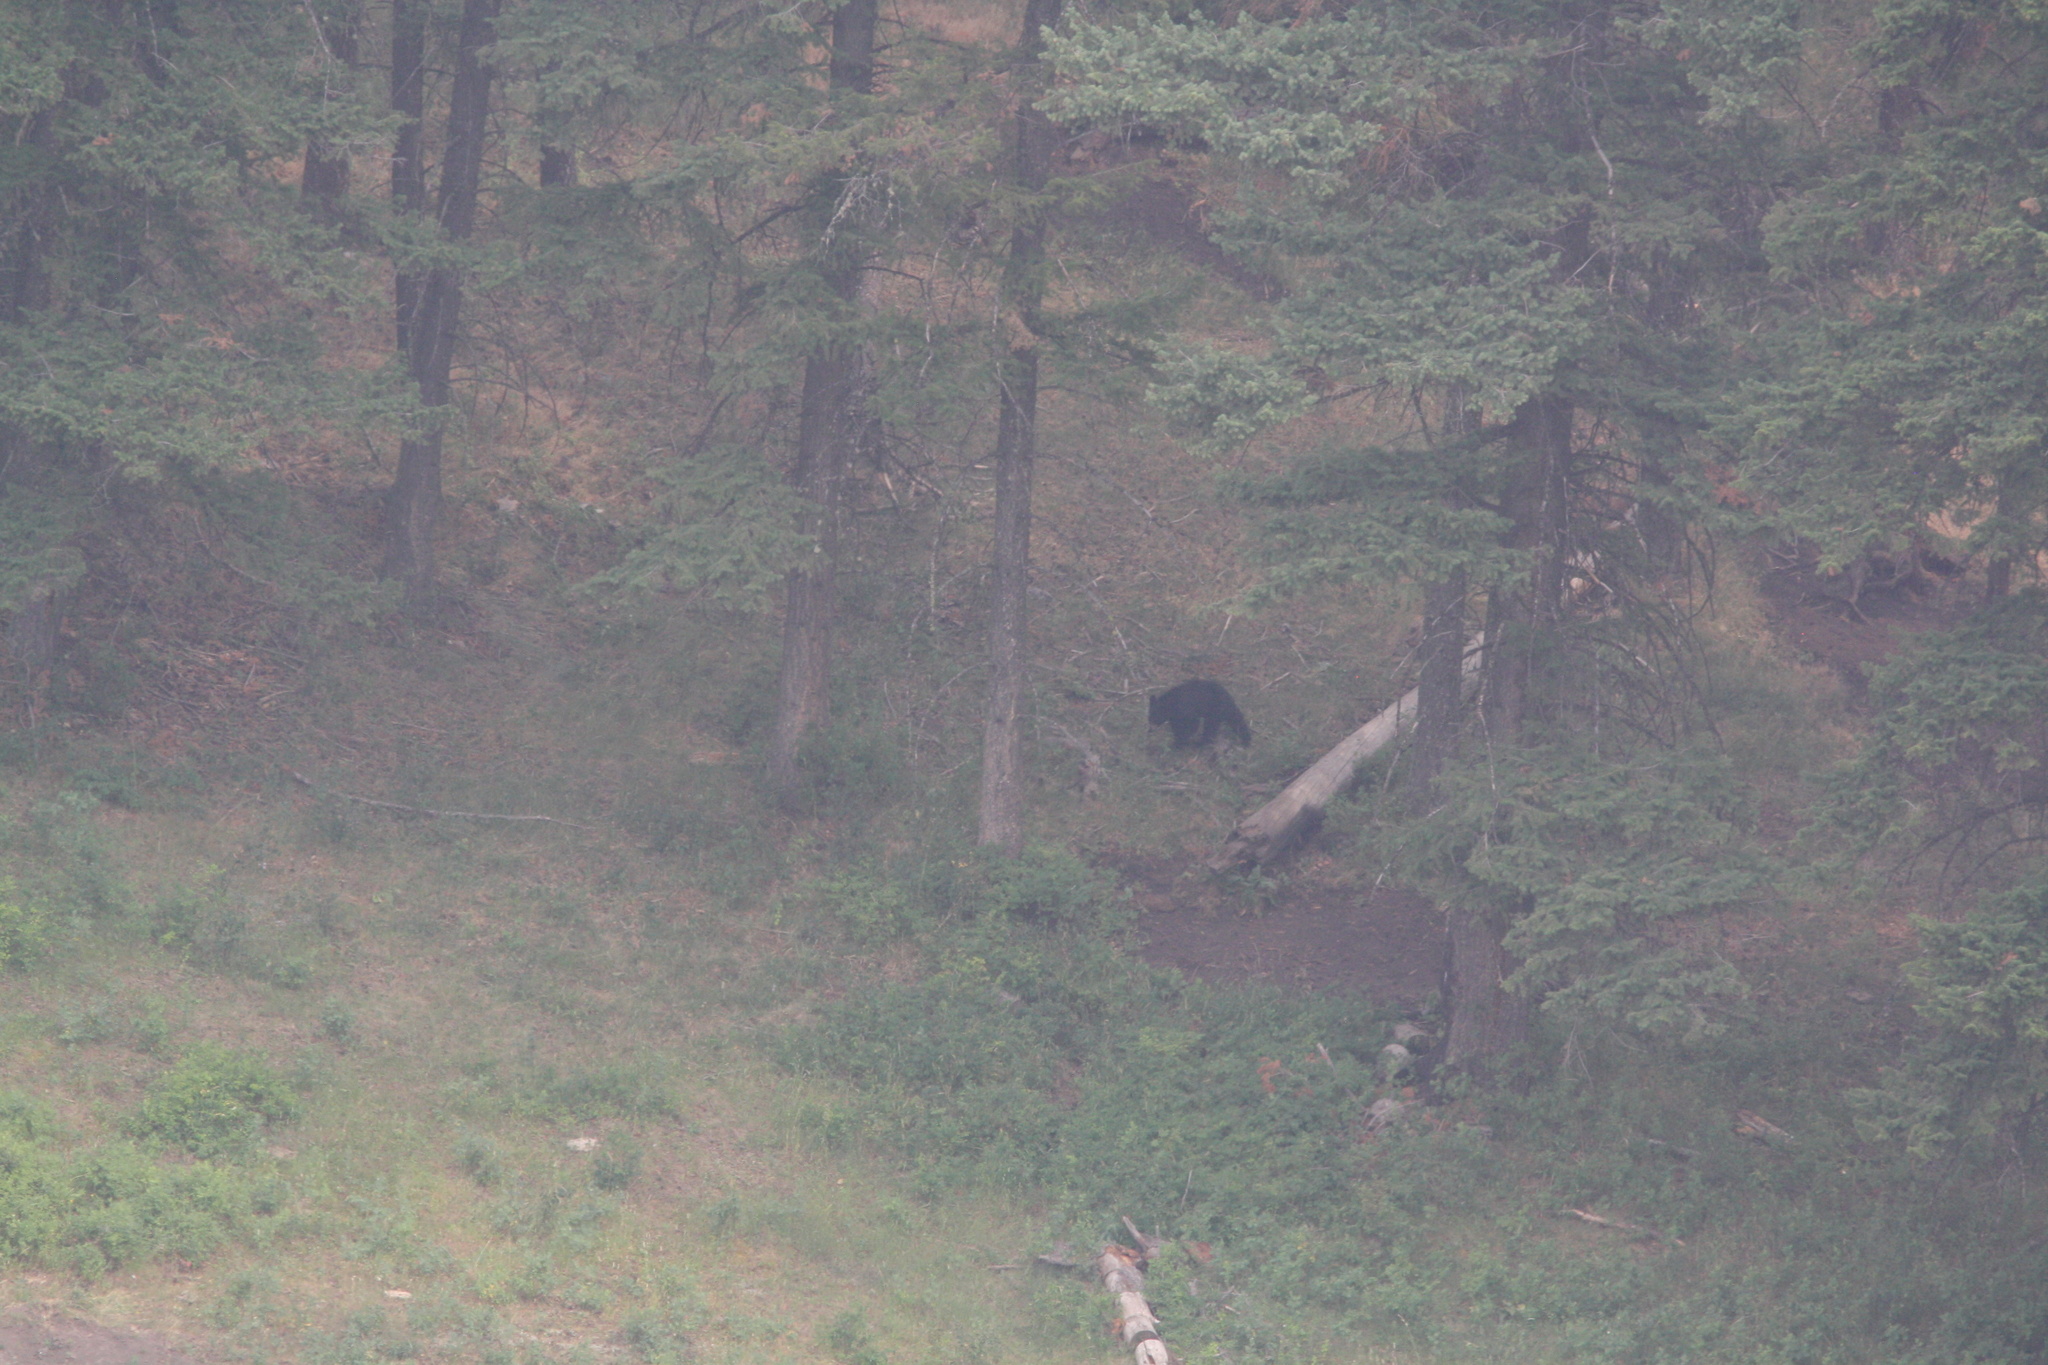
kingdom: Animalia
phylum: Chordata
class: Mammalia
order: Carnivora
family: Ursidae
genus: Ursus
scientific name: Ursus americanus
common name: American black bear
